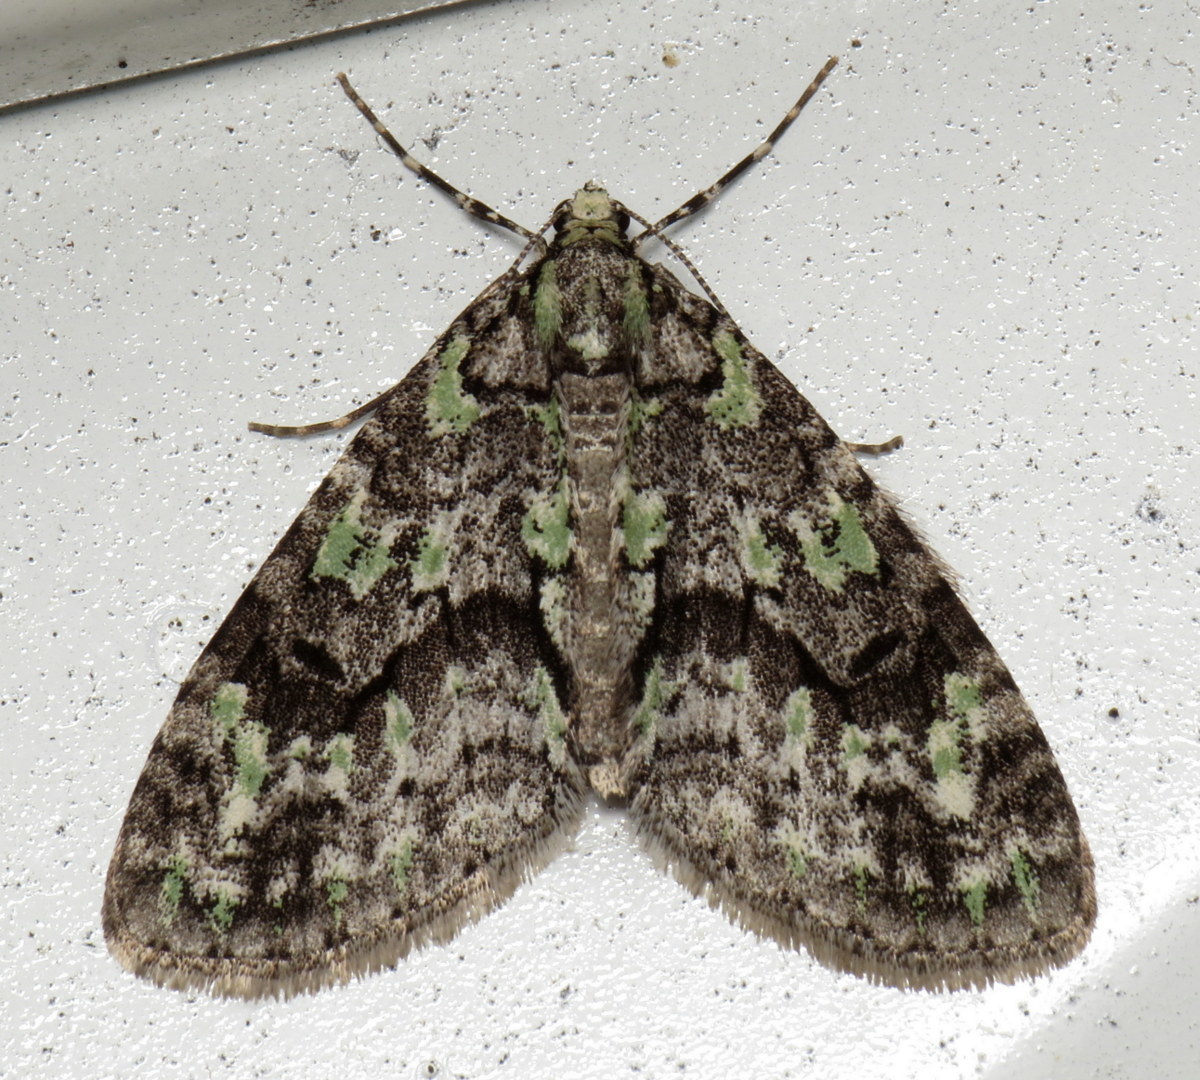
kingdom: Animalia
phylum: Arthropoda
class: Insecta
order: Lepidoptera
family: Geometridae
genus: Cladara
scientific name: Cladara limitaria
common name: Mottled gray carpet
